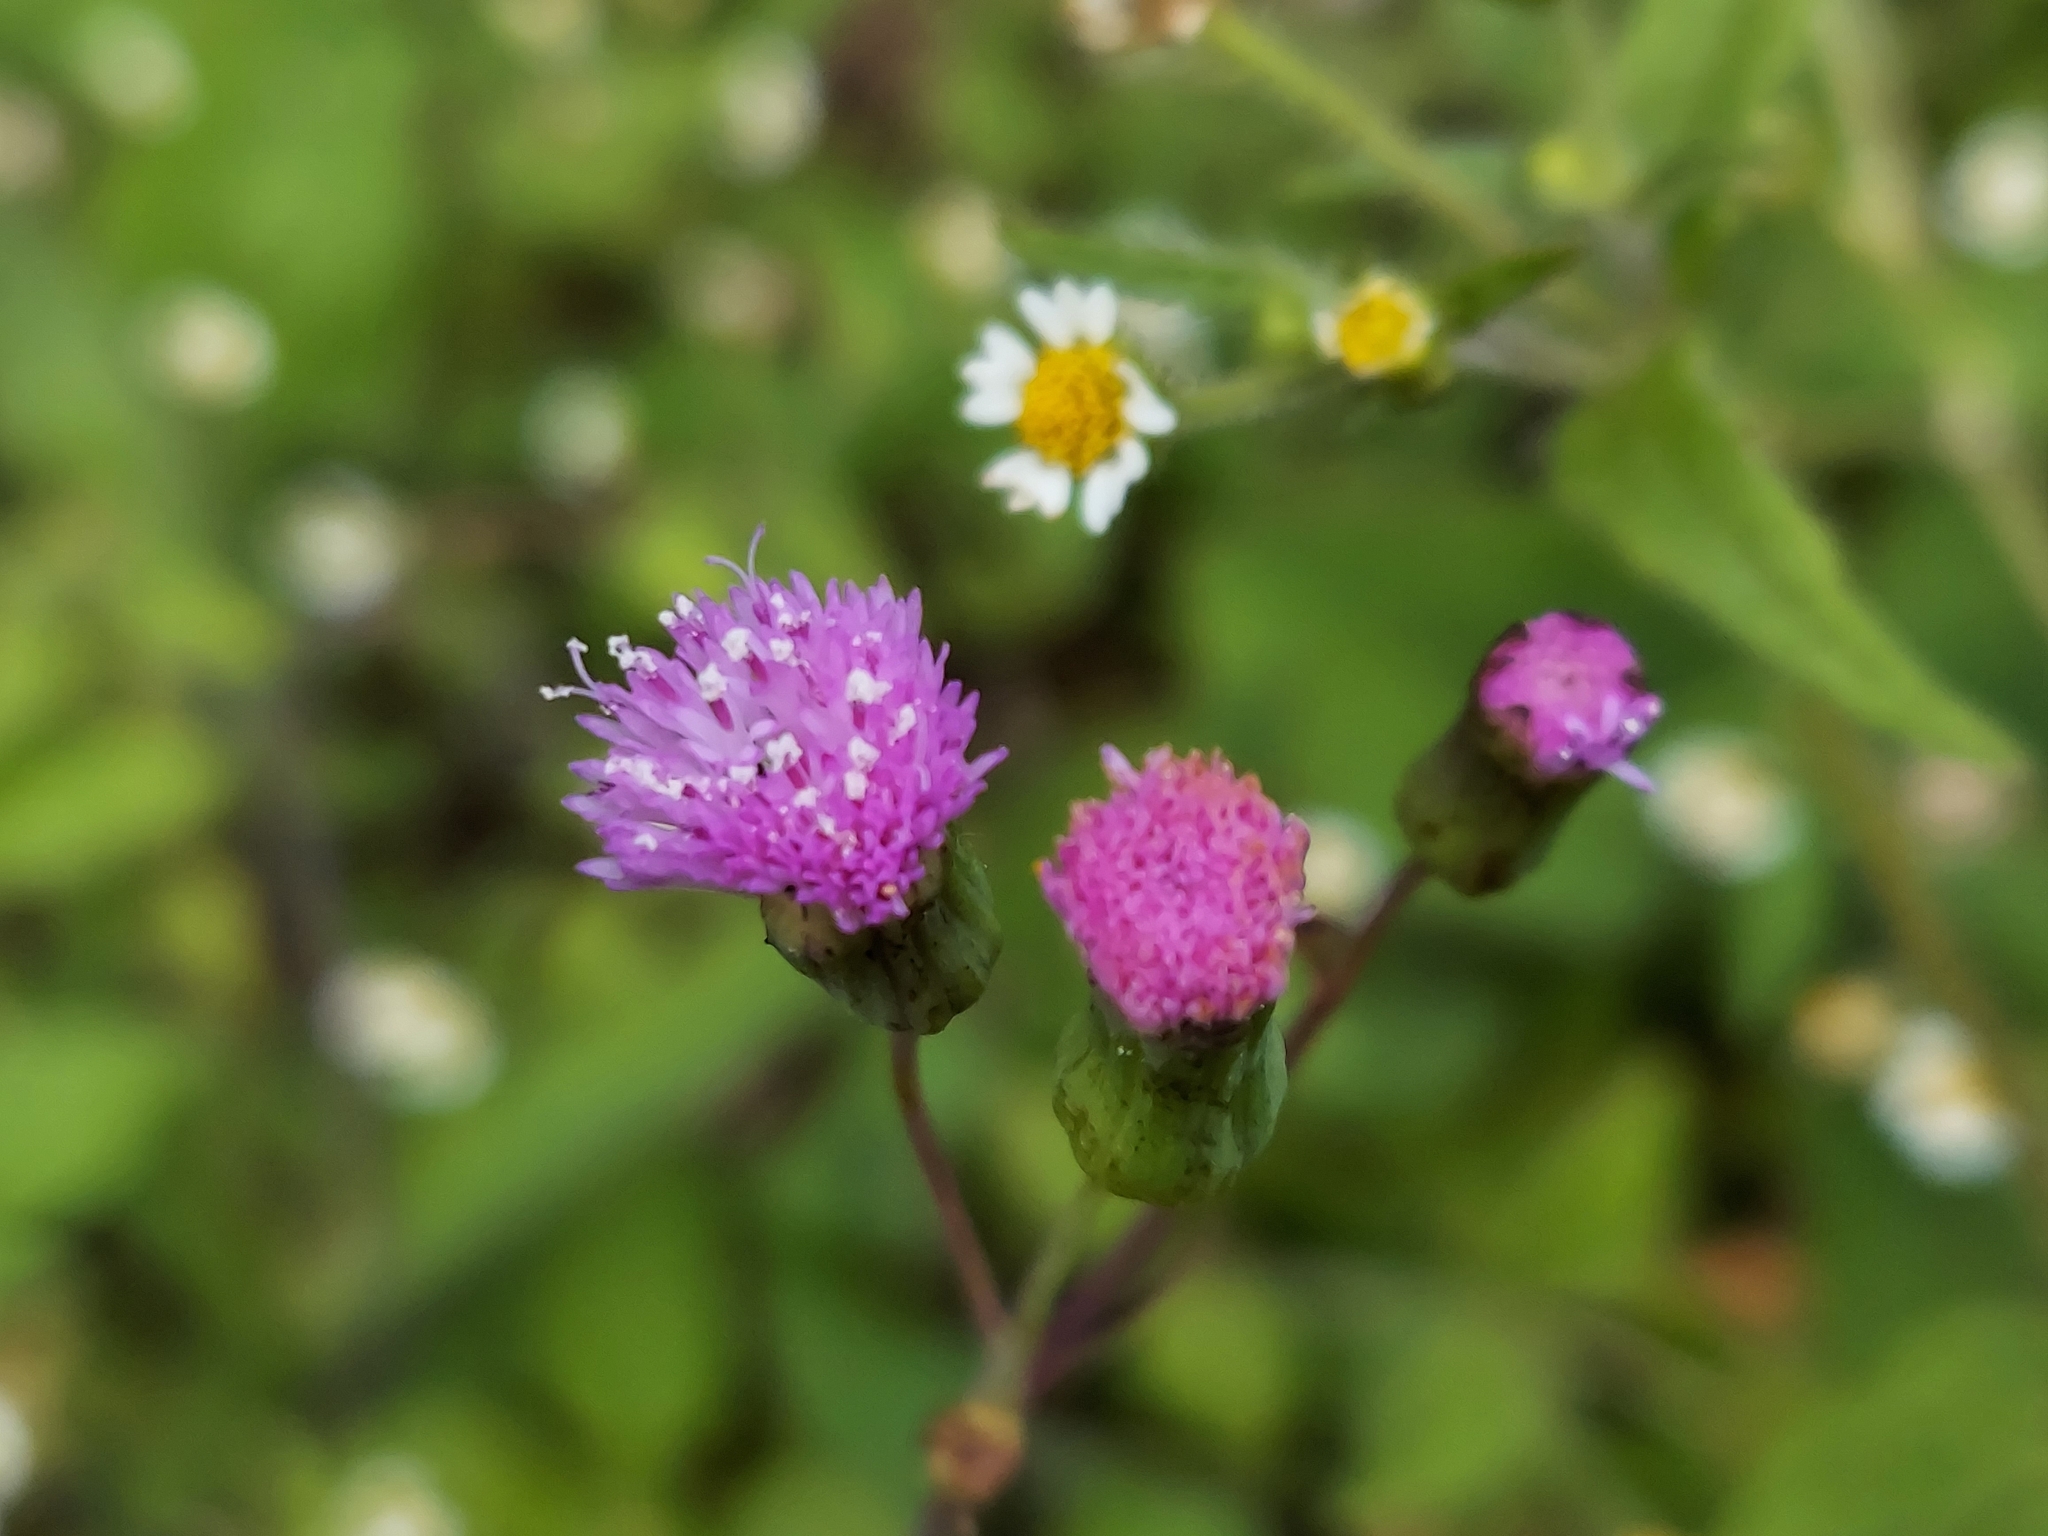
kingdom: Plantae
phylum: Tracheophyta
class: Magnoliopsida
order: Asterales
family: Asteraceae
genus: Emilia
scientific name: Emilia sonchifolia
